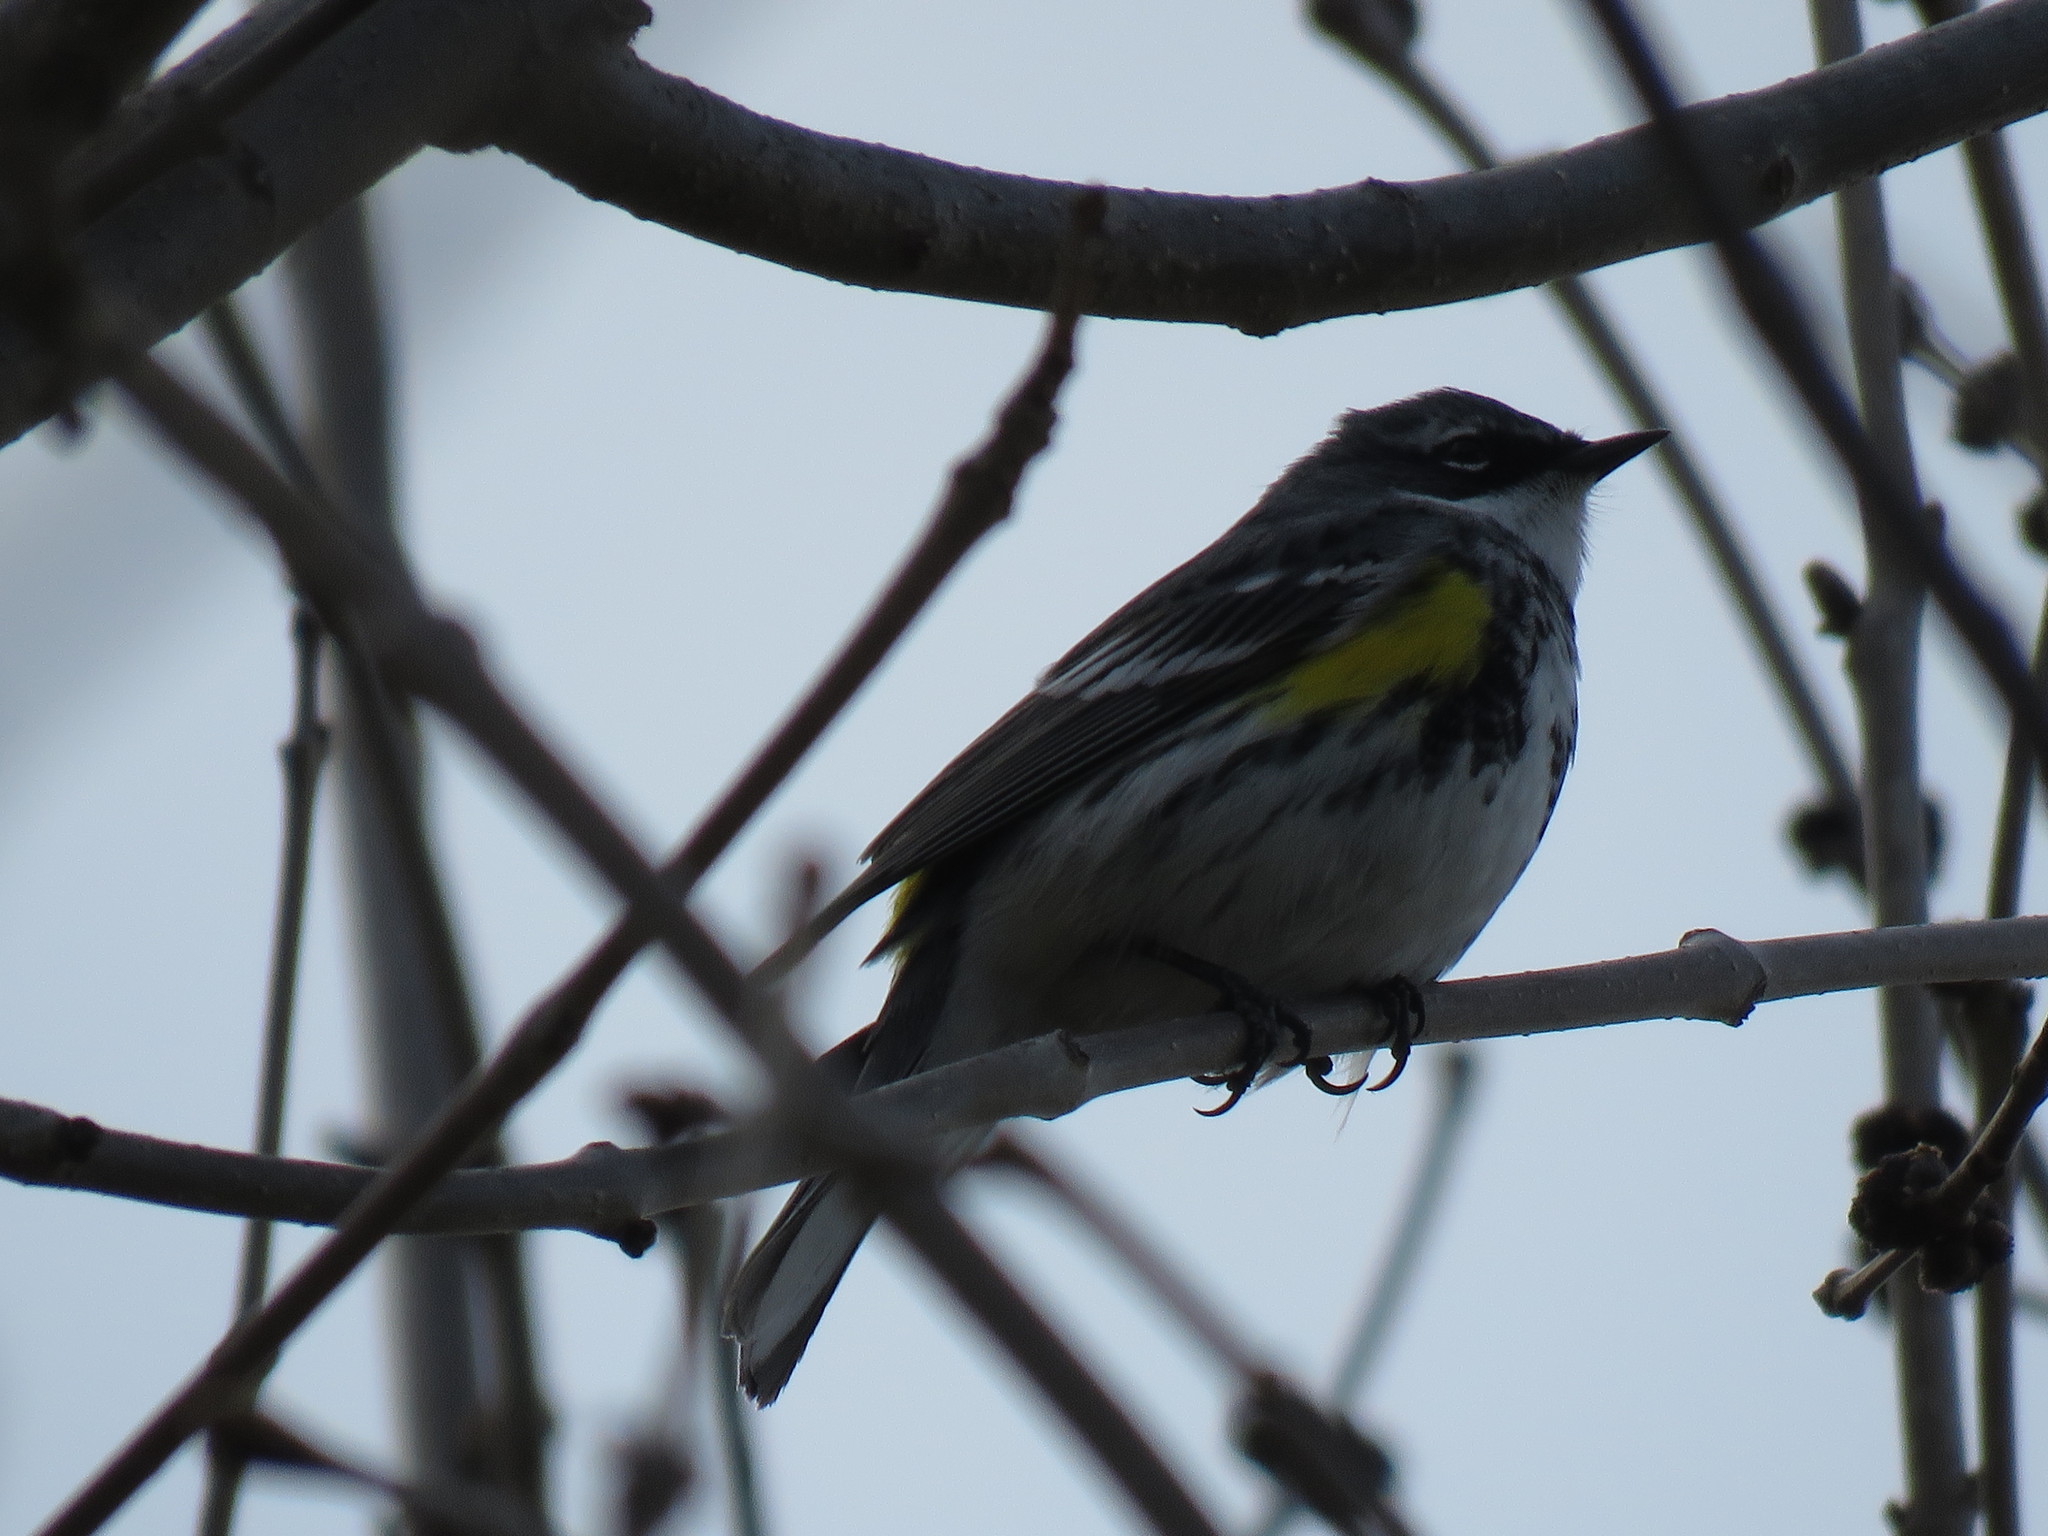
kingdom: Animalia
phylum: Chordata
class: Aves
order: Passeriformes
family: Parulidae
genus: Setophaga
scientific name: Setophaga coronata
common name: Myrtle warbler
